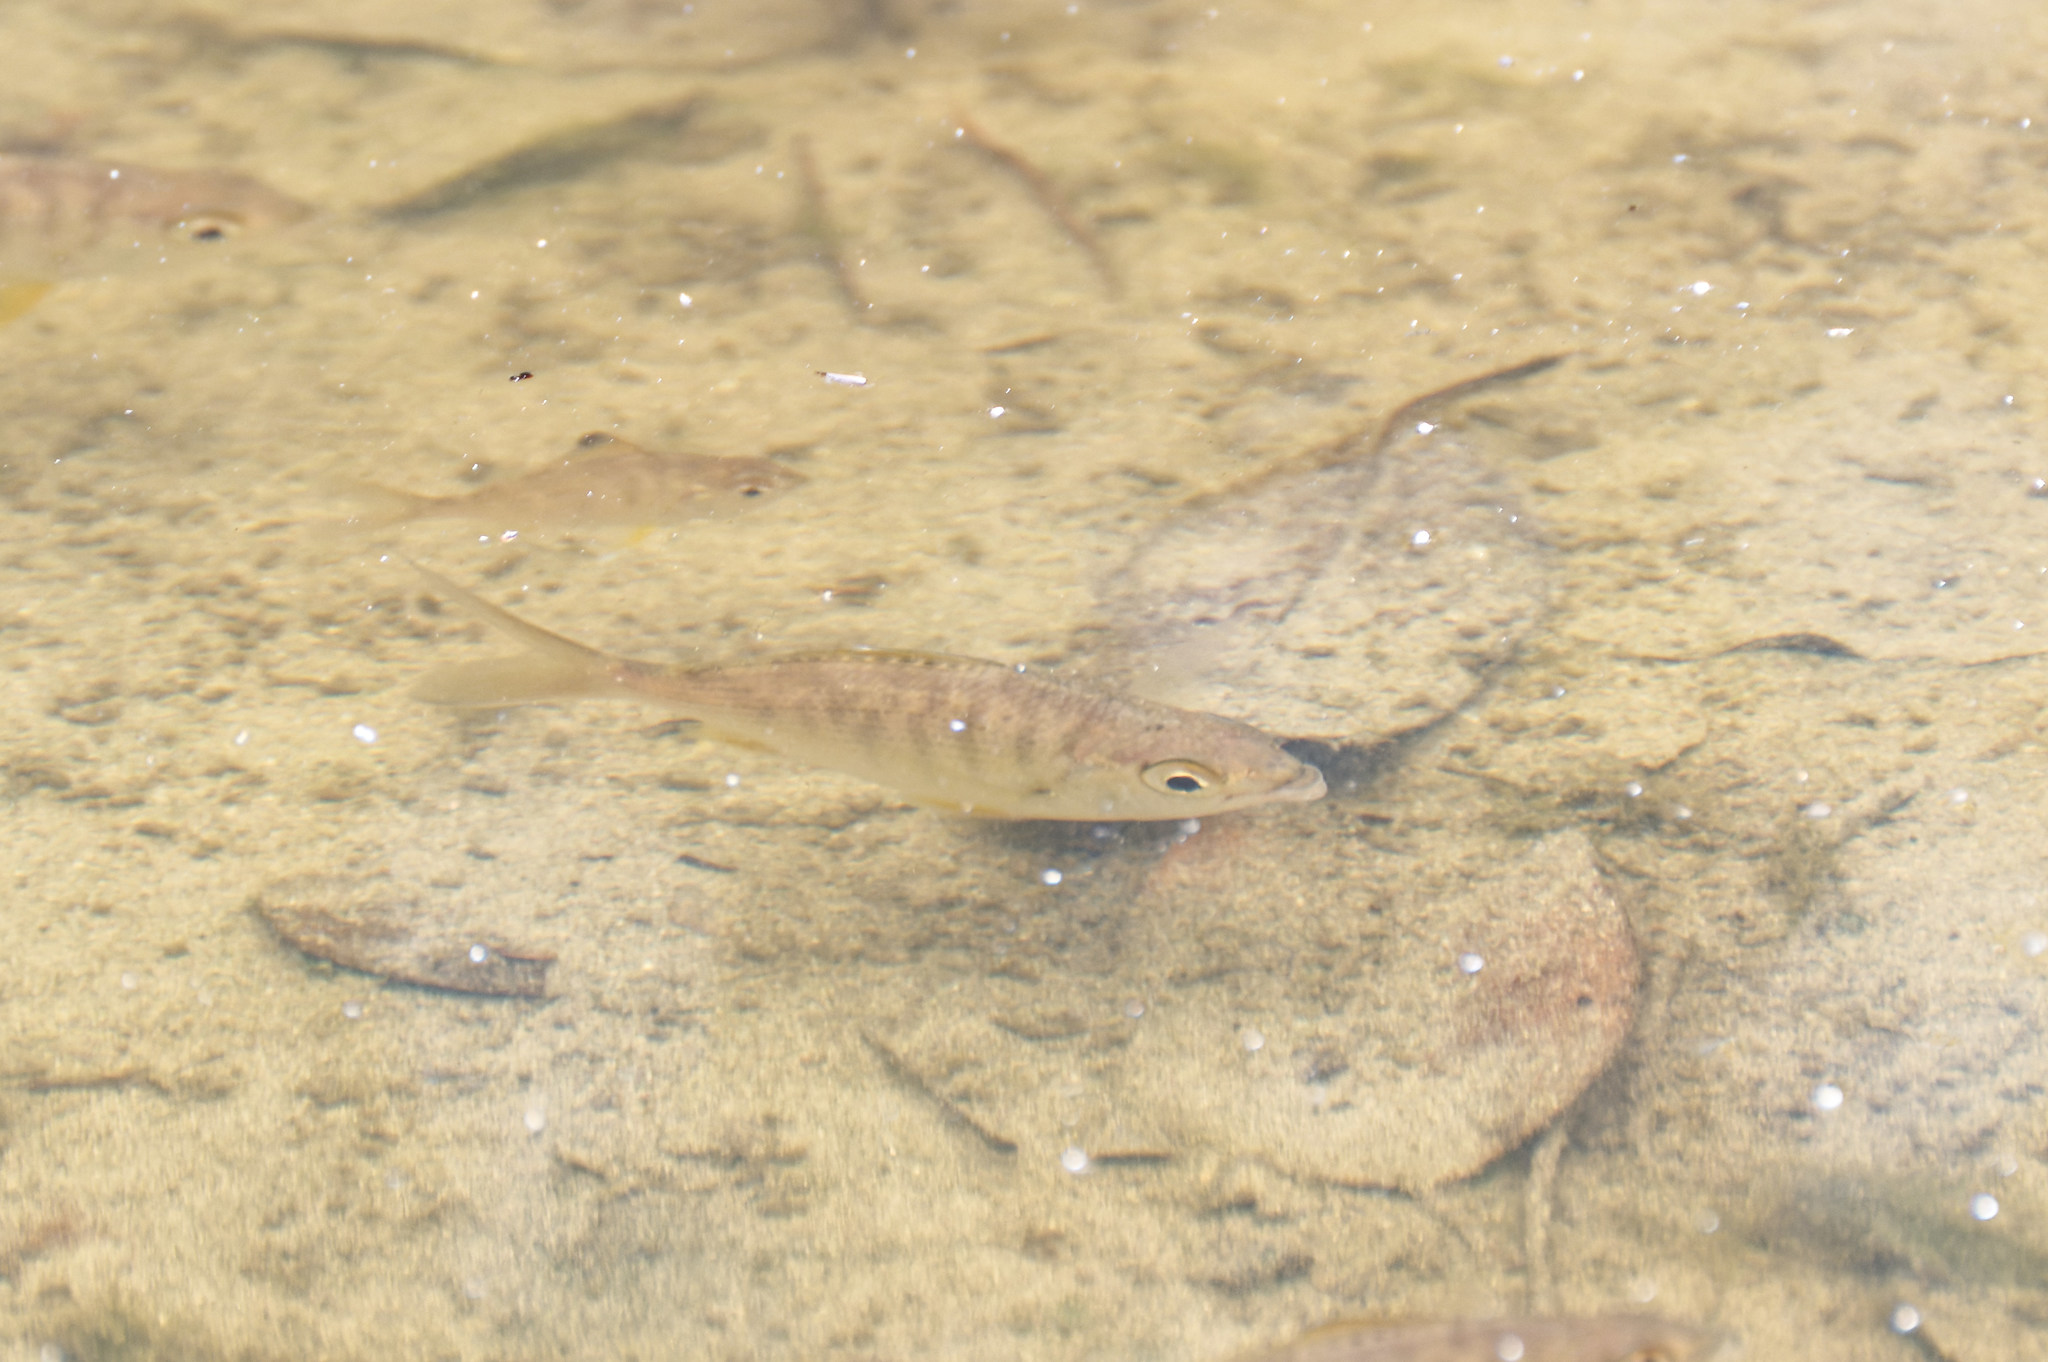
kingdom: Animalia
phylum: Chordata
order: Perciformes
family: Gerreidae
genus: Gerres
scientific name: Gerres cinereus
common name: Hedow
